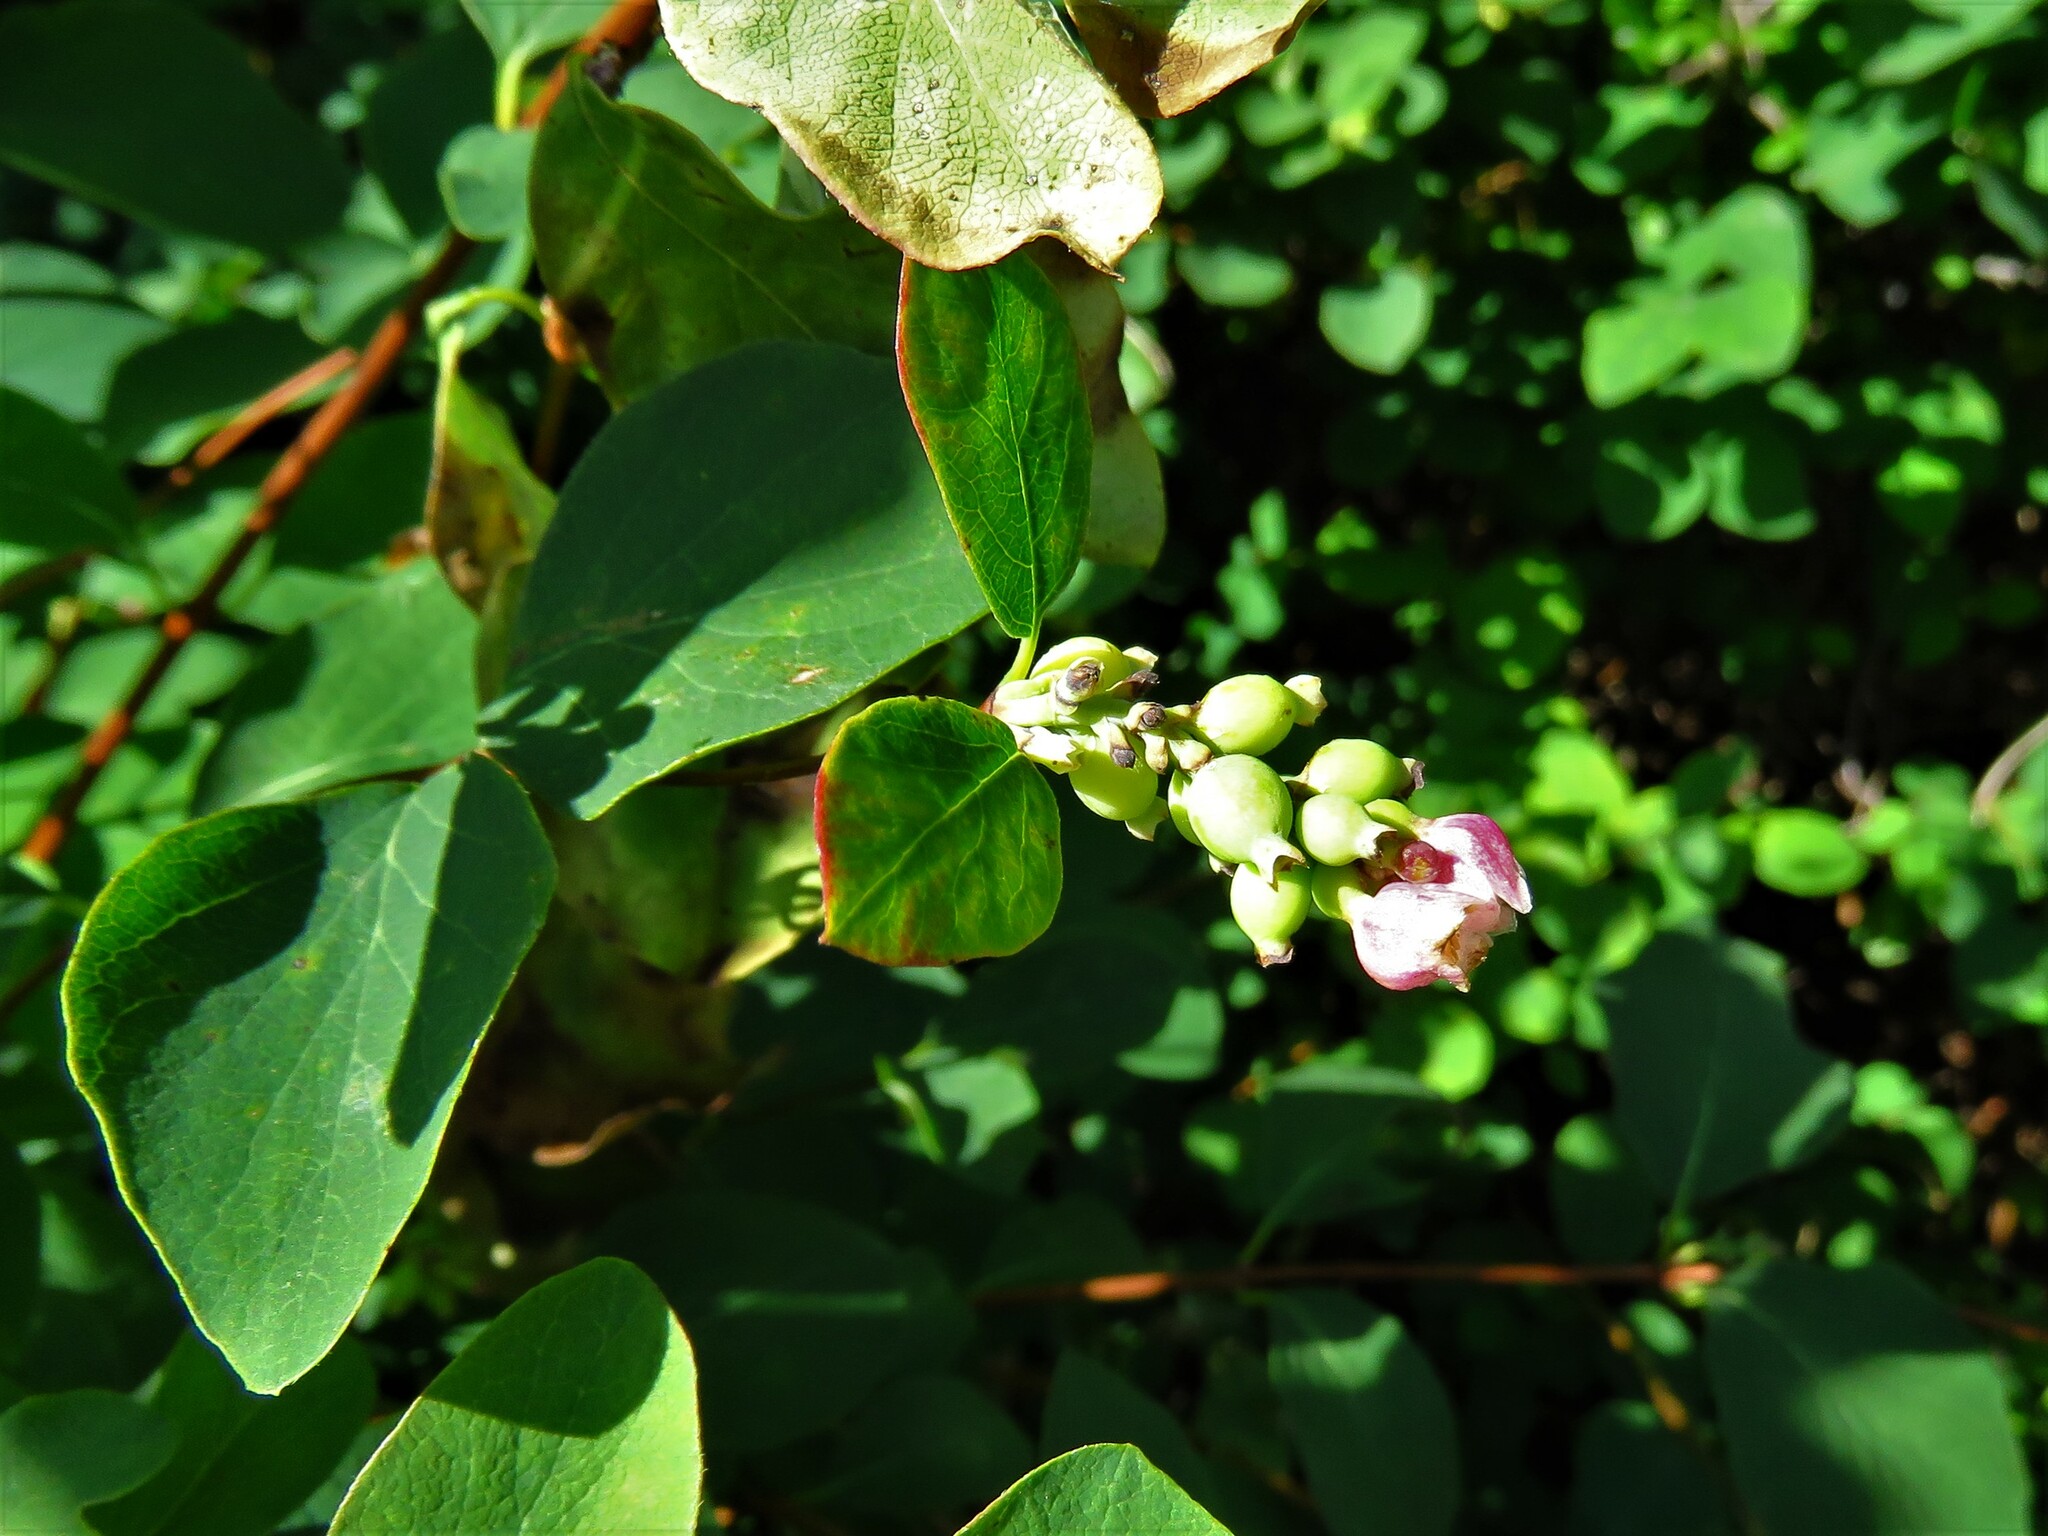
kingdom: Plantae
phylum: Tracheophyta
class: Magnoliopsida
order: Dipsacales
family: Caprifoliaceae
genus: Symphoricarpos
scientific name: Symphoricarpos albus
